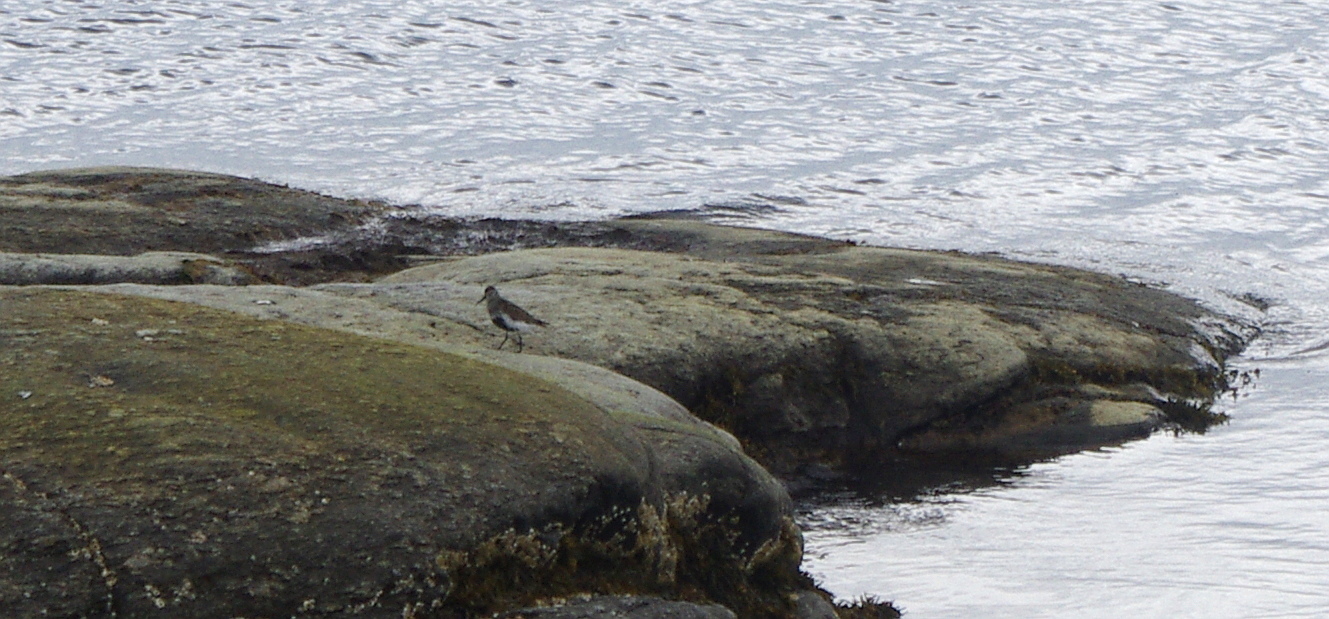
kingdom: Animalia
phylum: Chordata
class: Aves
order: Charadriiformes
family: Scolopacidae
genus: Calidris
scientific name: Calidris alpina
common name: Dunlin
